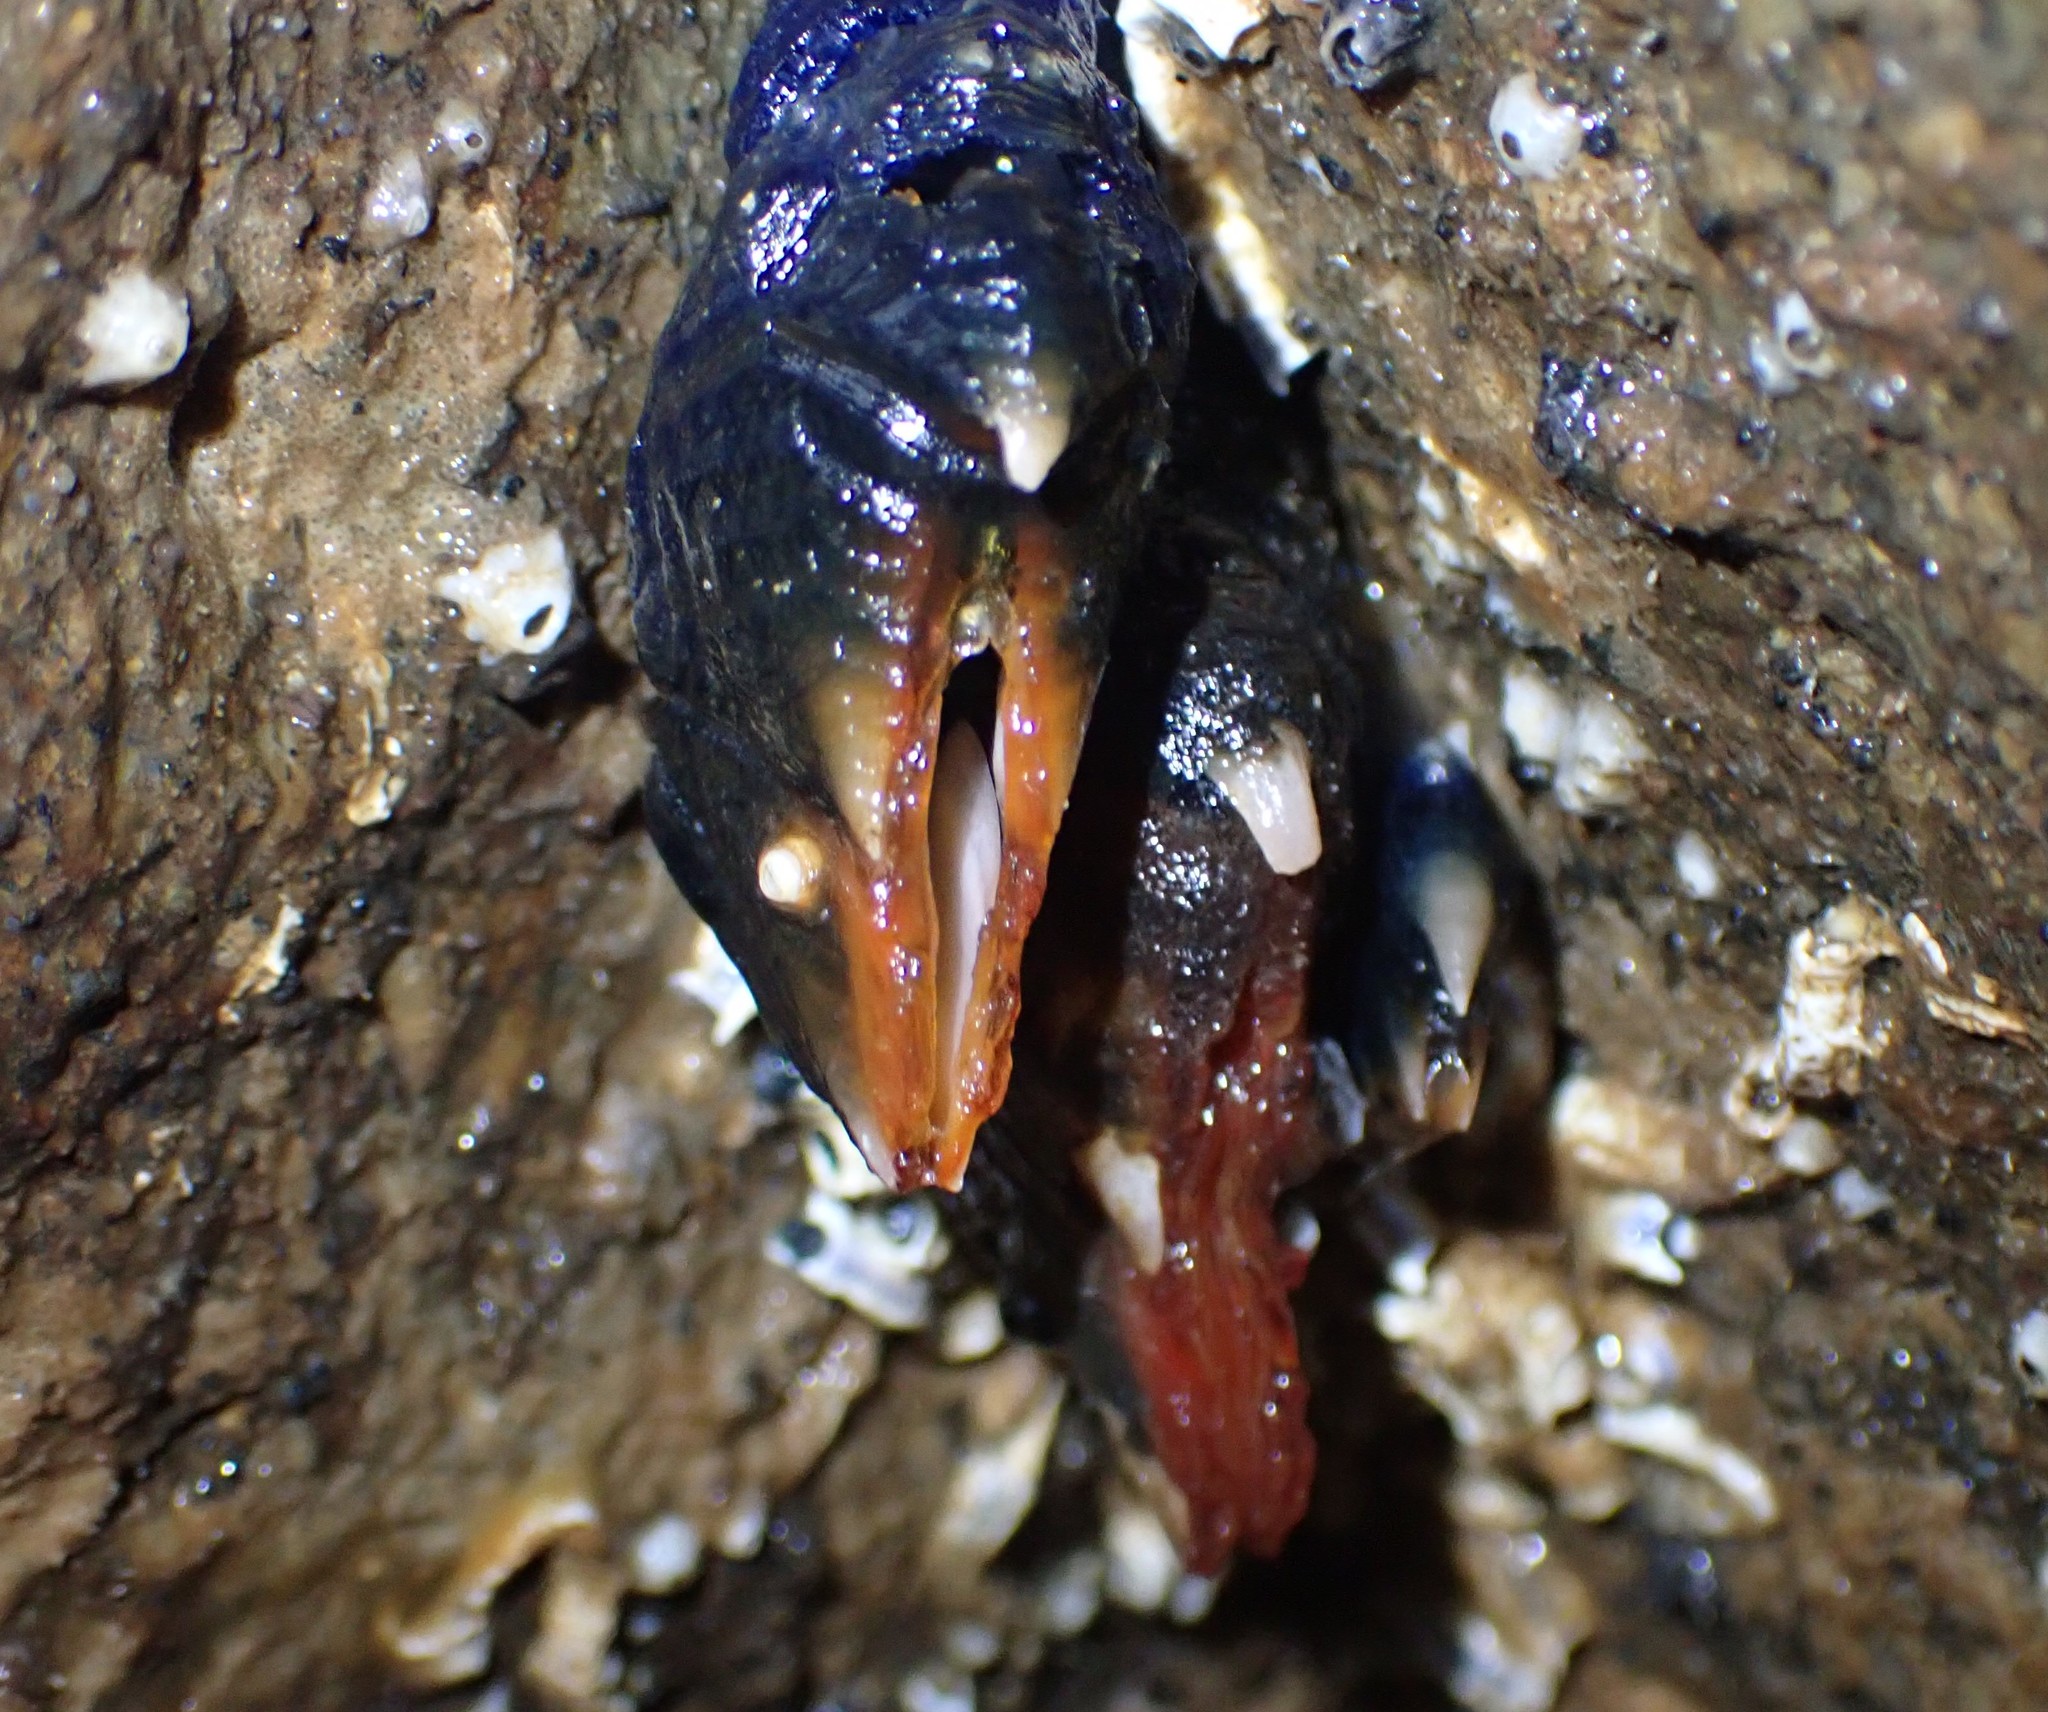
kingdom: Animalia
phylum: Arthropoda
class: Maxillopoda
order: Pedunculata
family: Calanticidae
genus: Calantica
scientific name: Calantica spinosa
